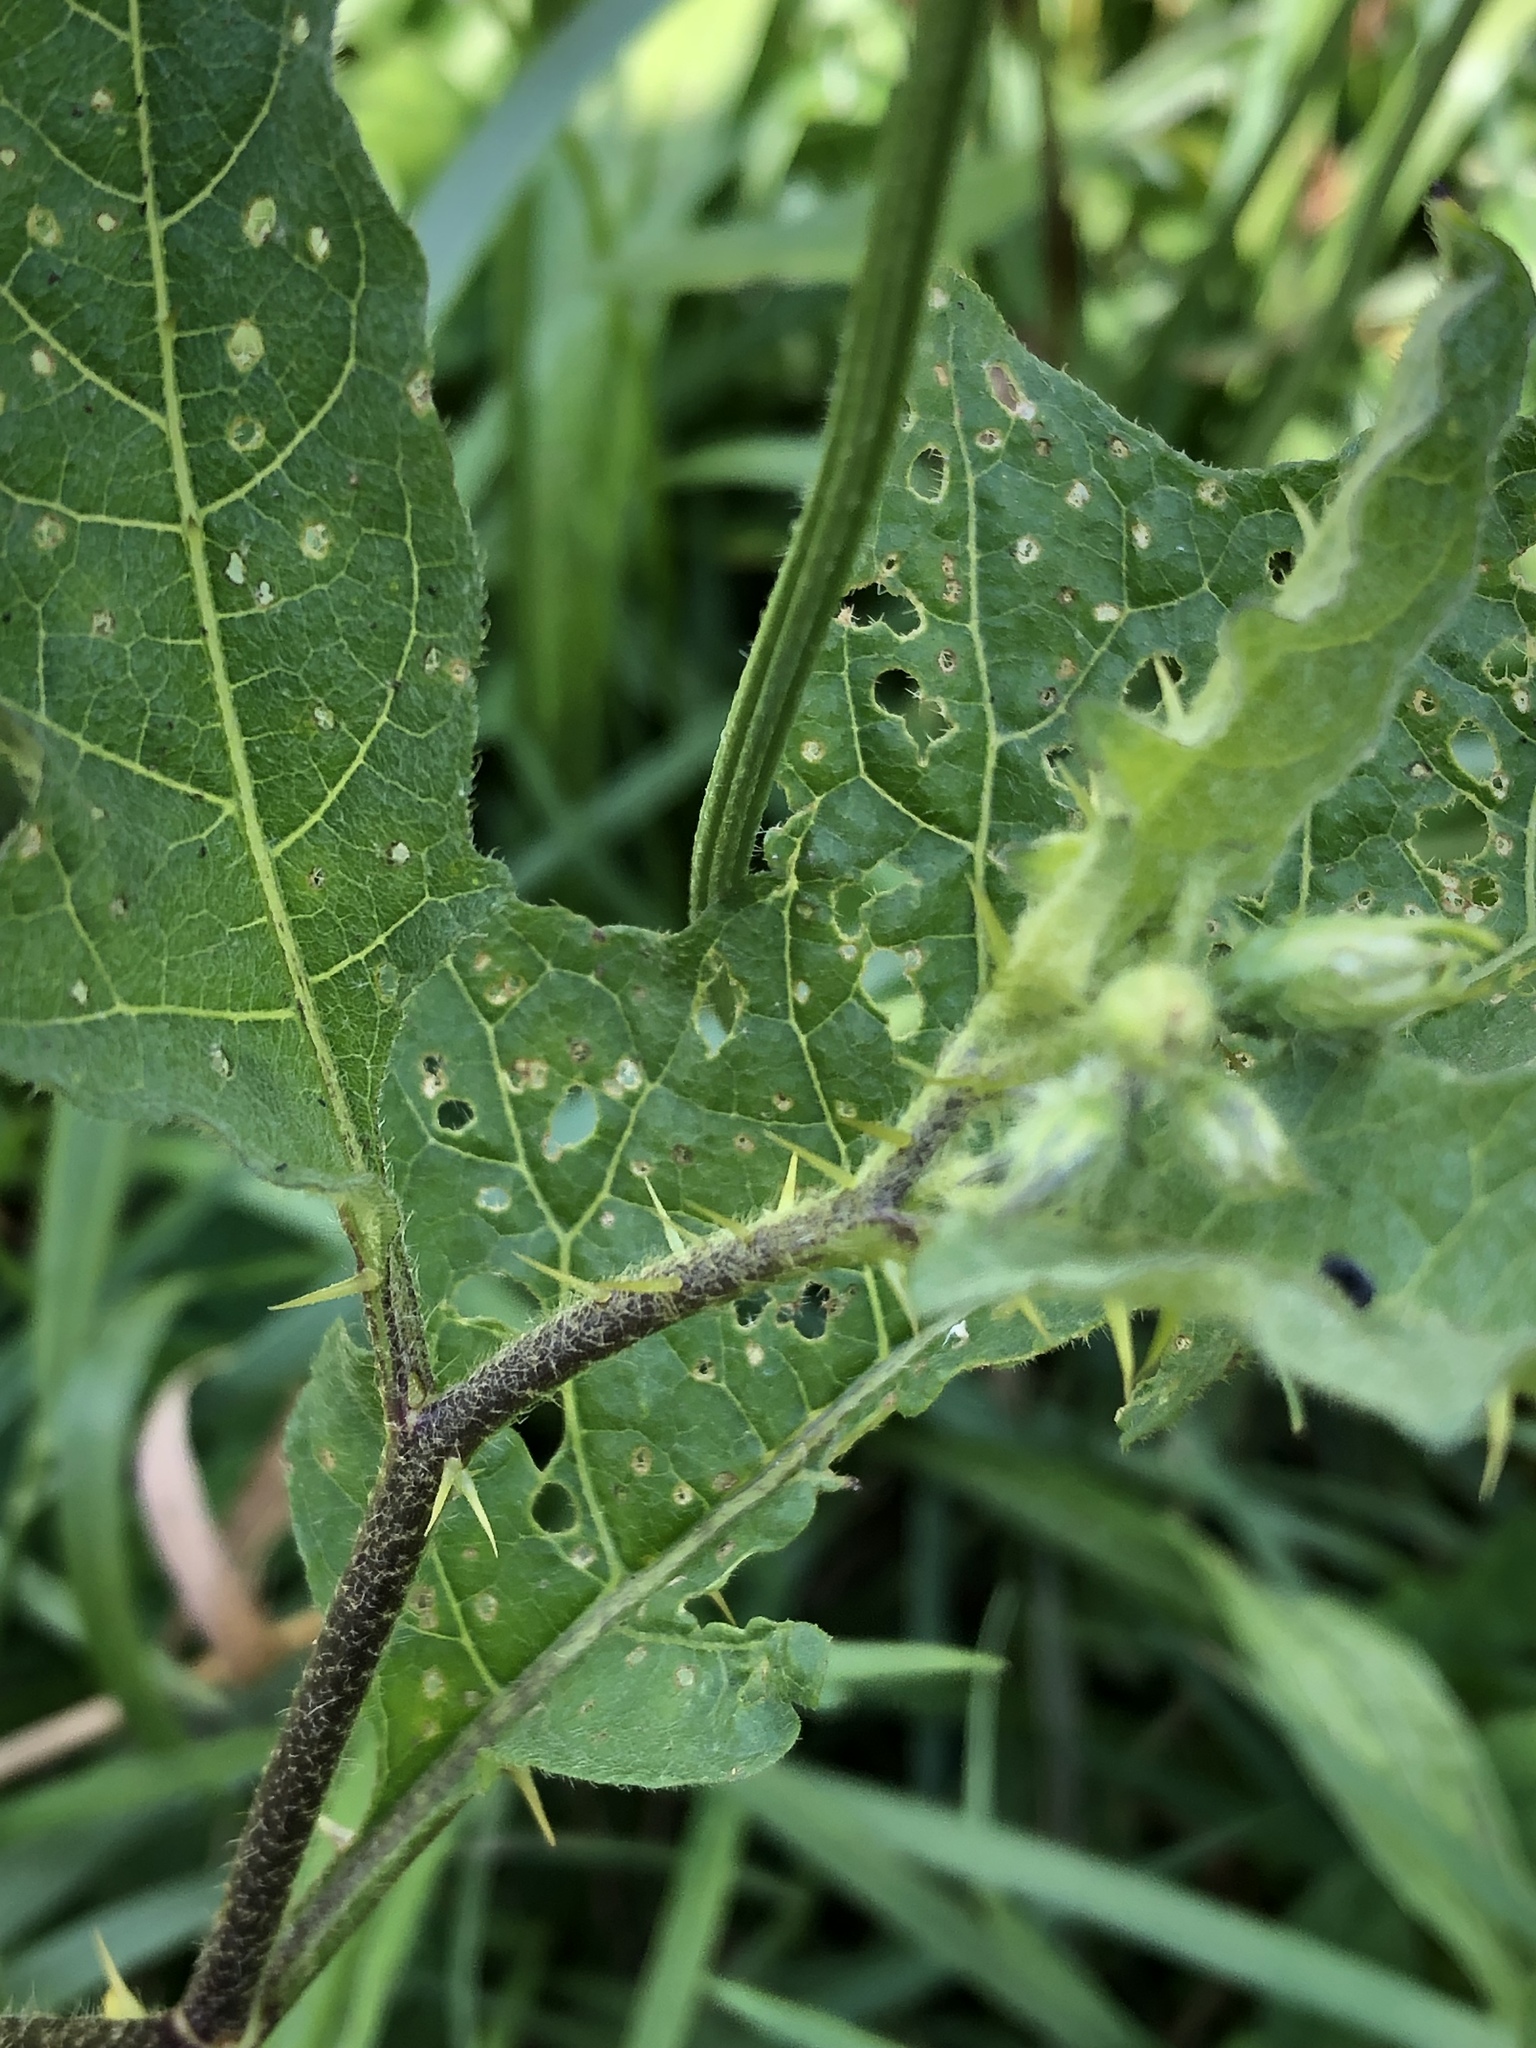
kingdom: Plantae
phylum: Tracheophyta
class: Magnoliopsida
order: Solanales
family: Solanaceae
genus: Solanum
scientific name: Solanum carolinense
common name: Horse-nettle
